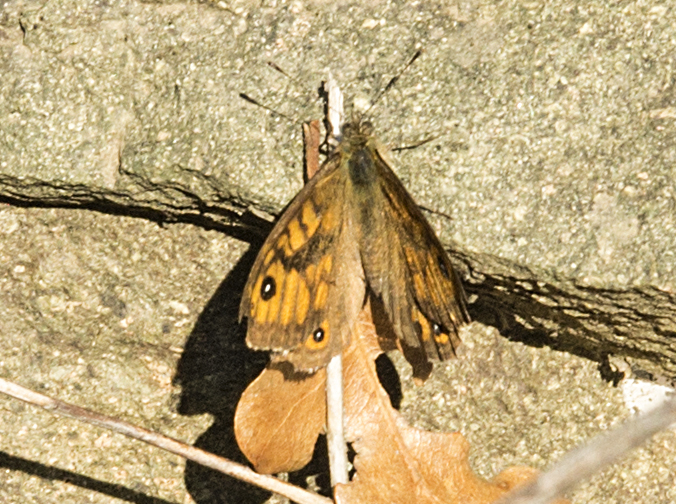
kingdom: Animalia
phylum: Arthropoda
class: Insecta
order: Lepidoptera
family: Nymphalidae
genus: Pararge
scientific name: Pararge Lasiommata megera
